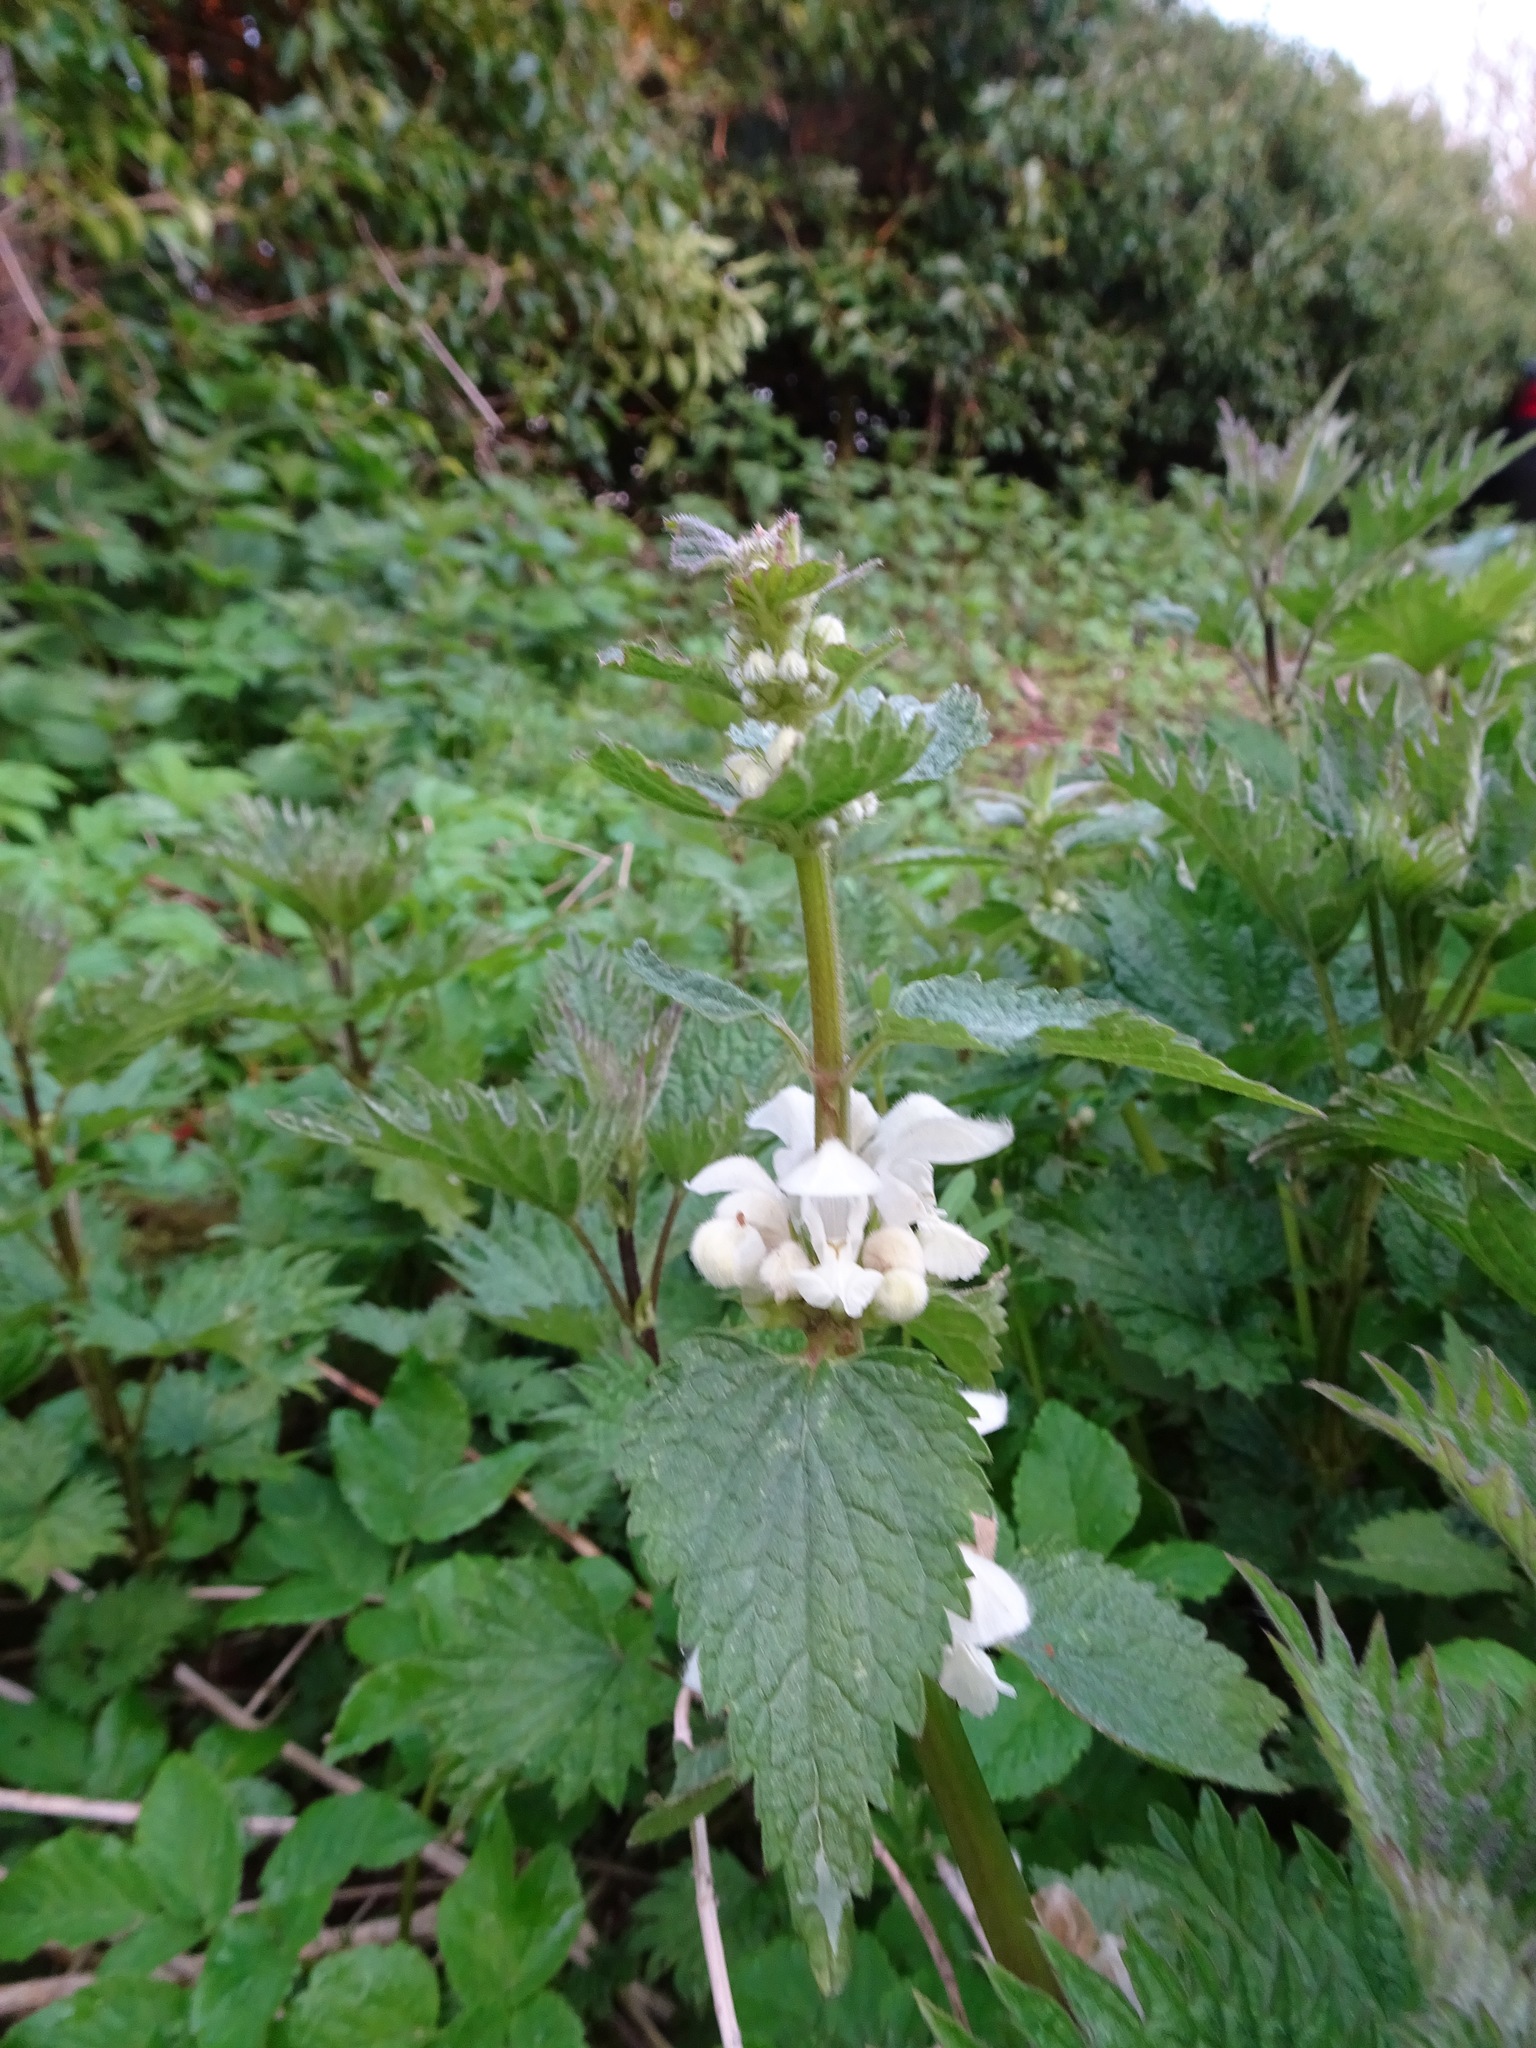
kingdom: Plantae
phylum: Tracheophyta
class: Magnoliopsida
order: Lamiales
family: Lamiaceae
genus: Lamium
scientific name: Lamium album
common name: White dead-nettle
